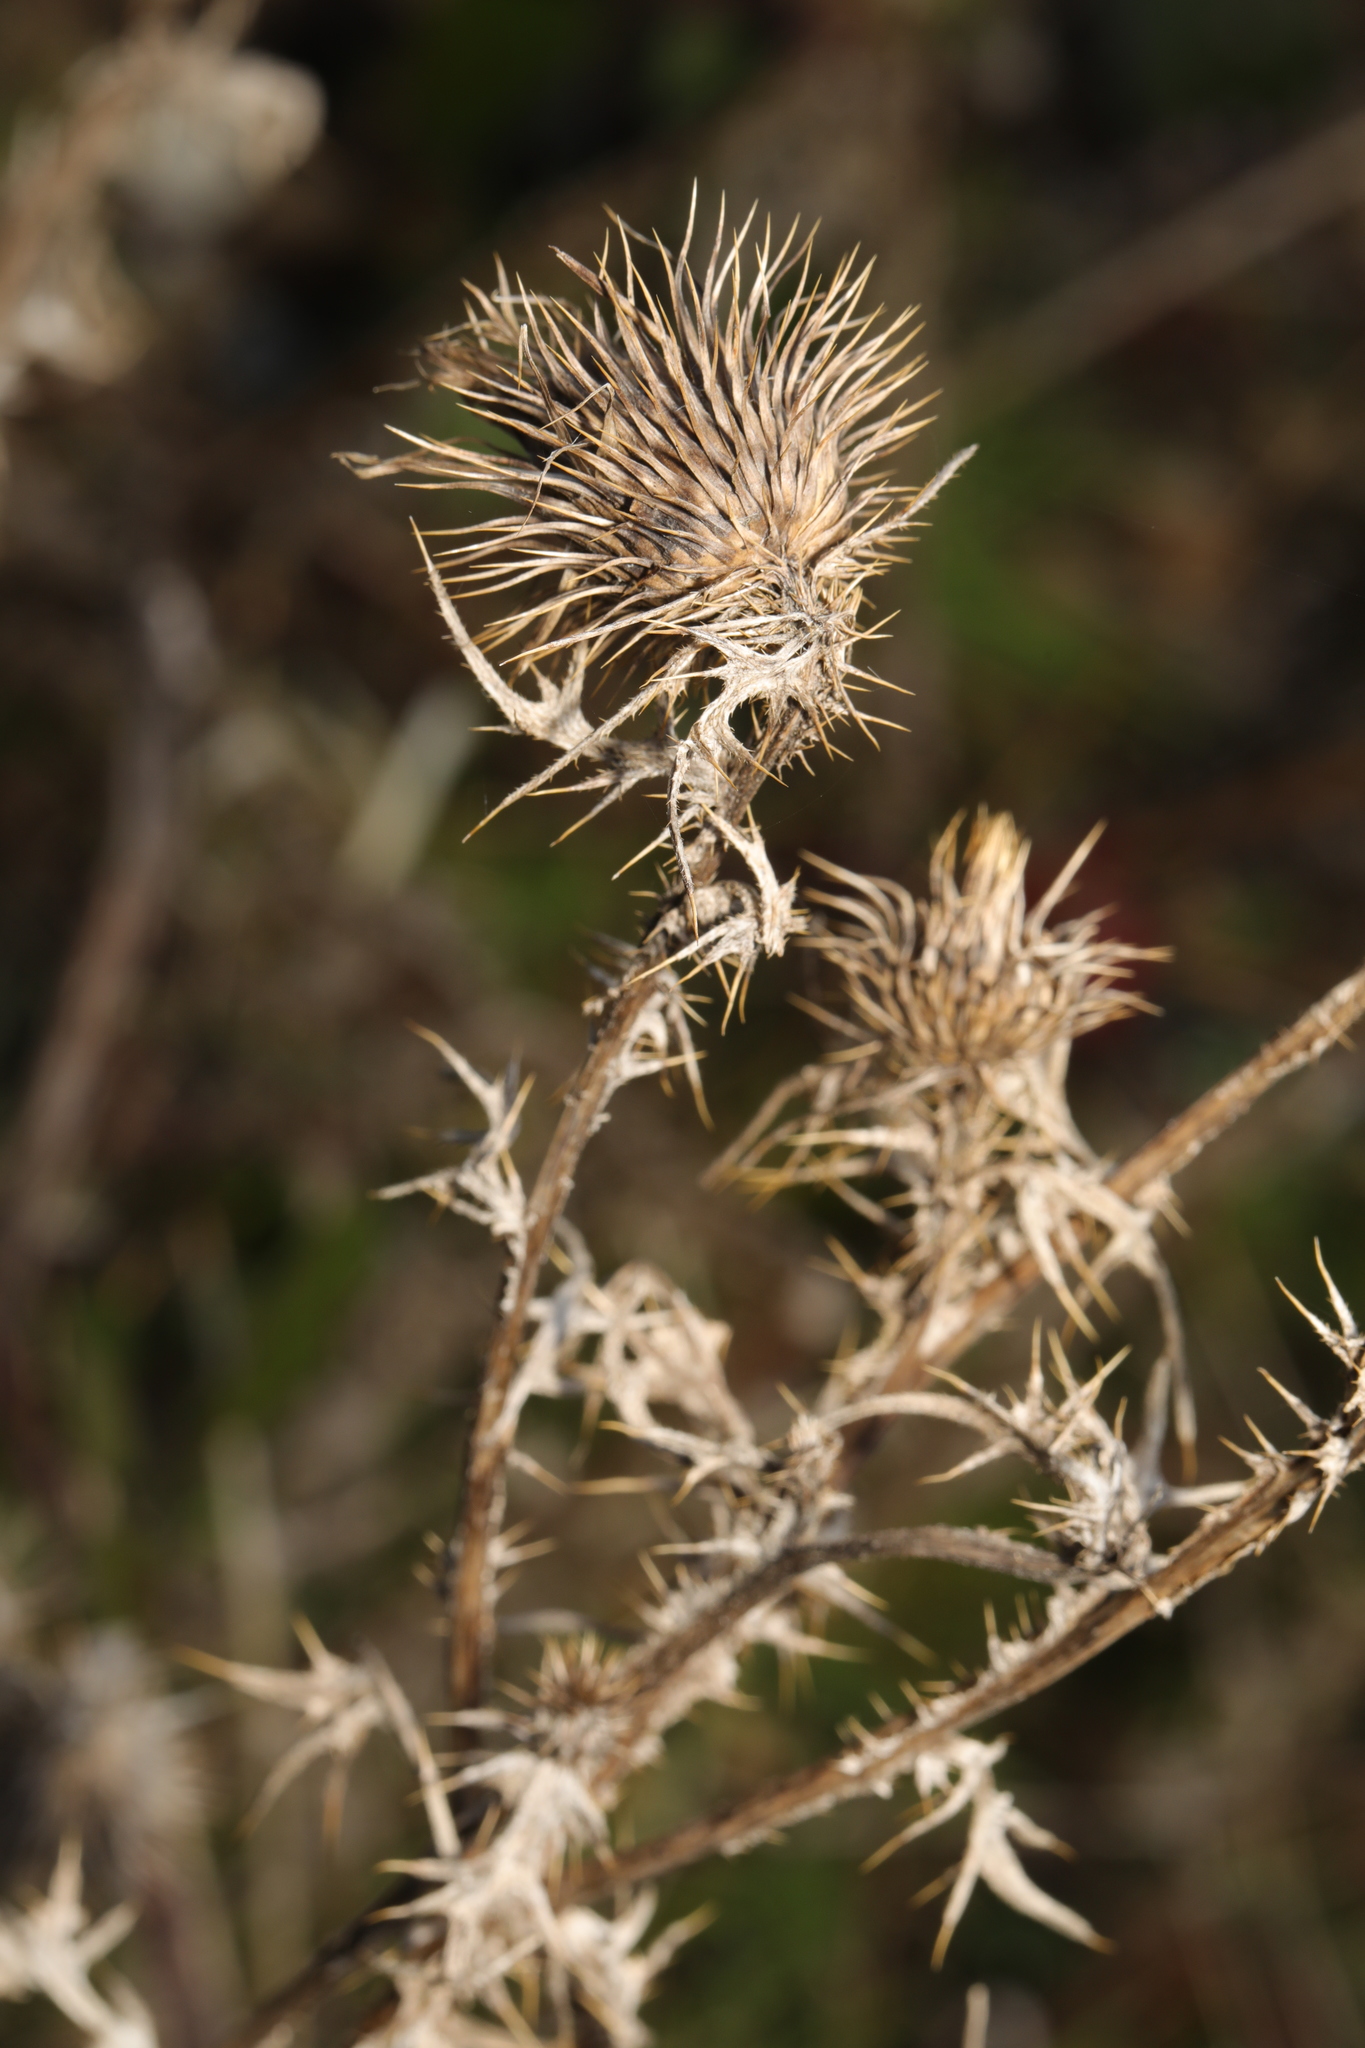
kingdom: Plantae
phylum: Tracheophyta
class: Magnoliopsida
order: Asterales
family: Asteraceae
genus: Cirsium
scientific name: Cirsium vulgare
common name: Bull thistle
